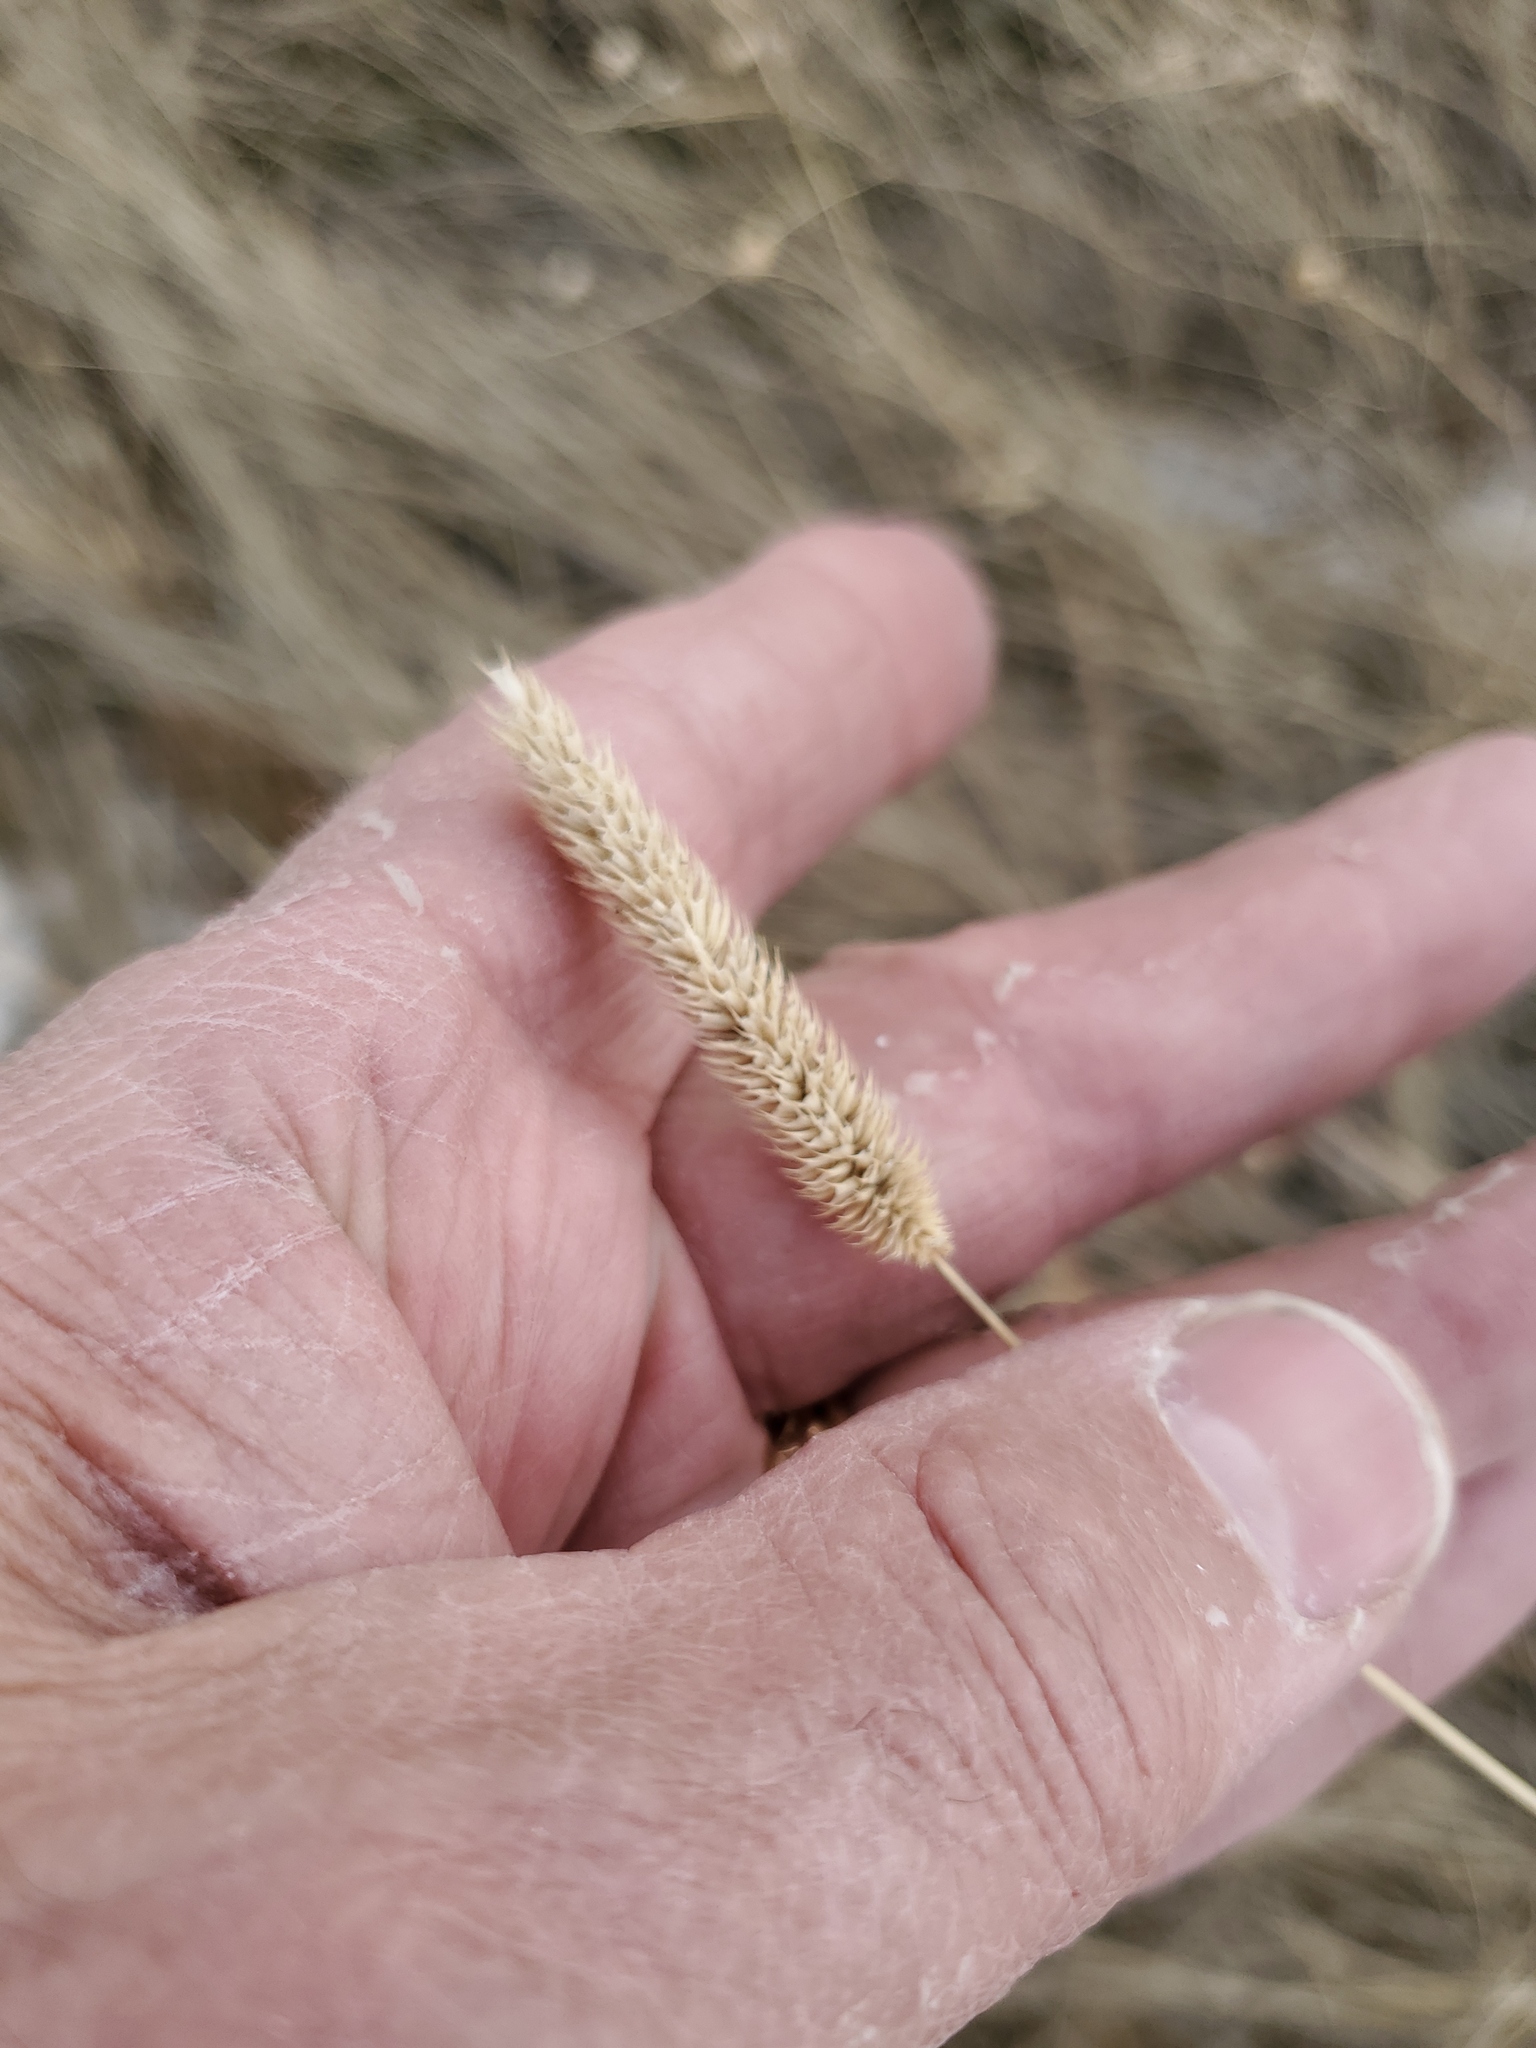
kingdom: Plantae
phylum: Tracheophyta
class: Liliopsida
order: Poales
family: Poaceae
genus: Phleum
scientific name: Phleum pratense
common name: Timothy grass
